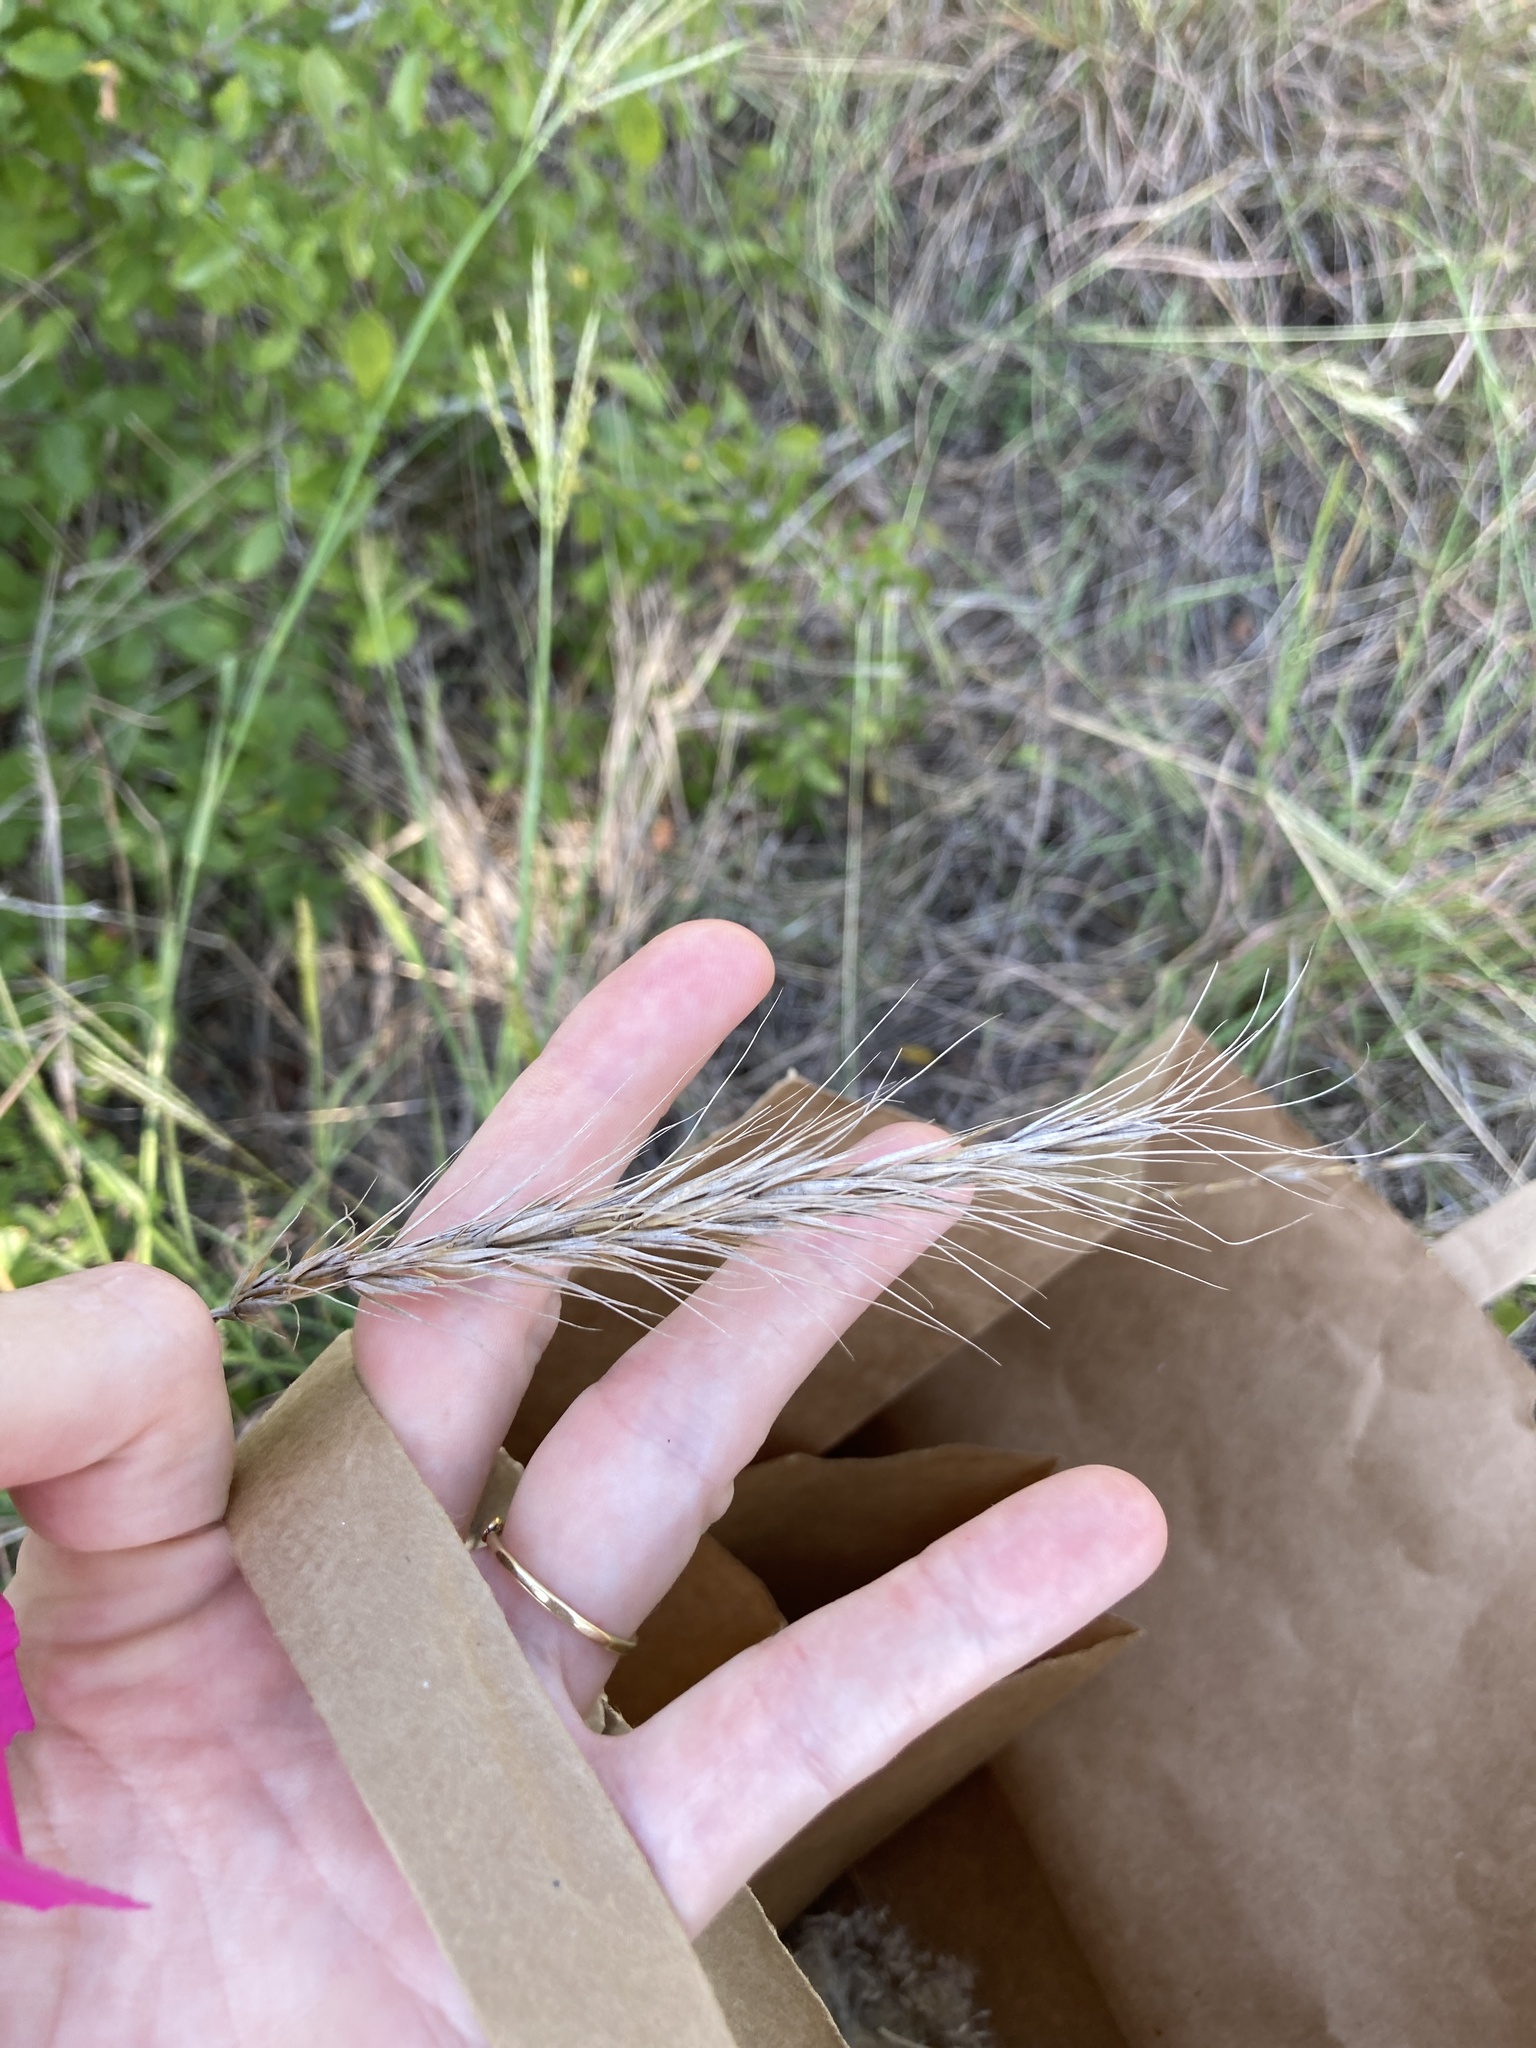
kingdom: Plantae
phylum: Tracheophyta
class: Liliopsida
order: Poales
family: Poaceae
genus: Elymus
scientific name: Elymus canadensis
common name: Canada wild rye
